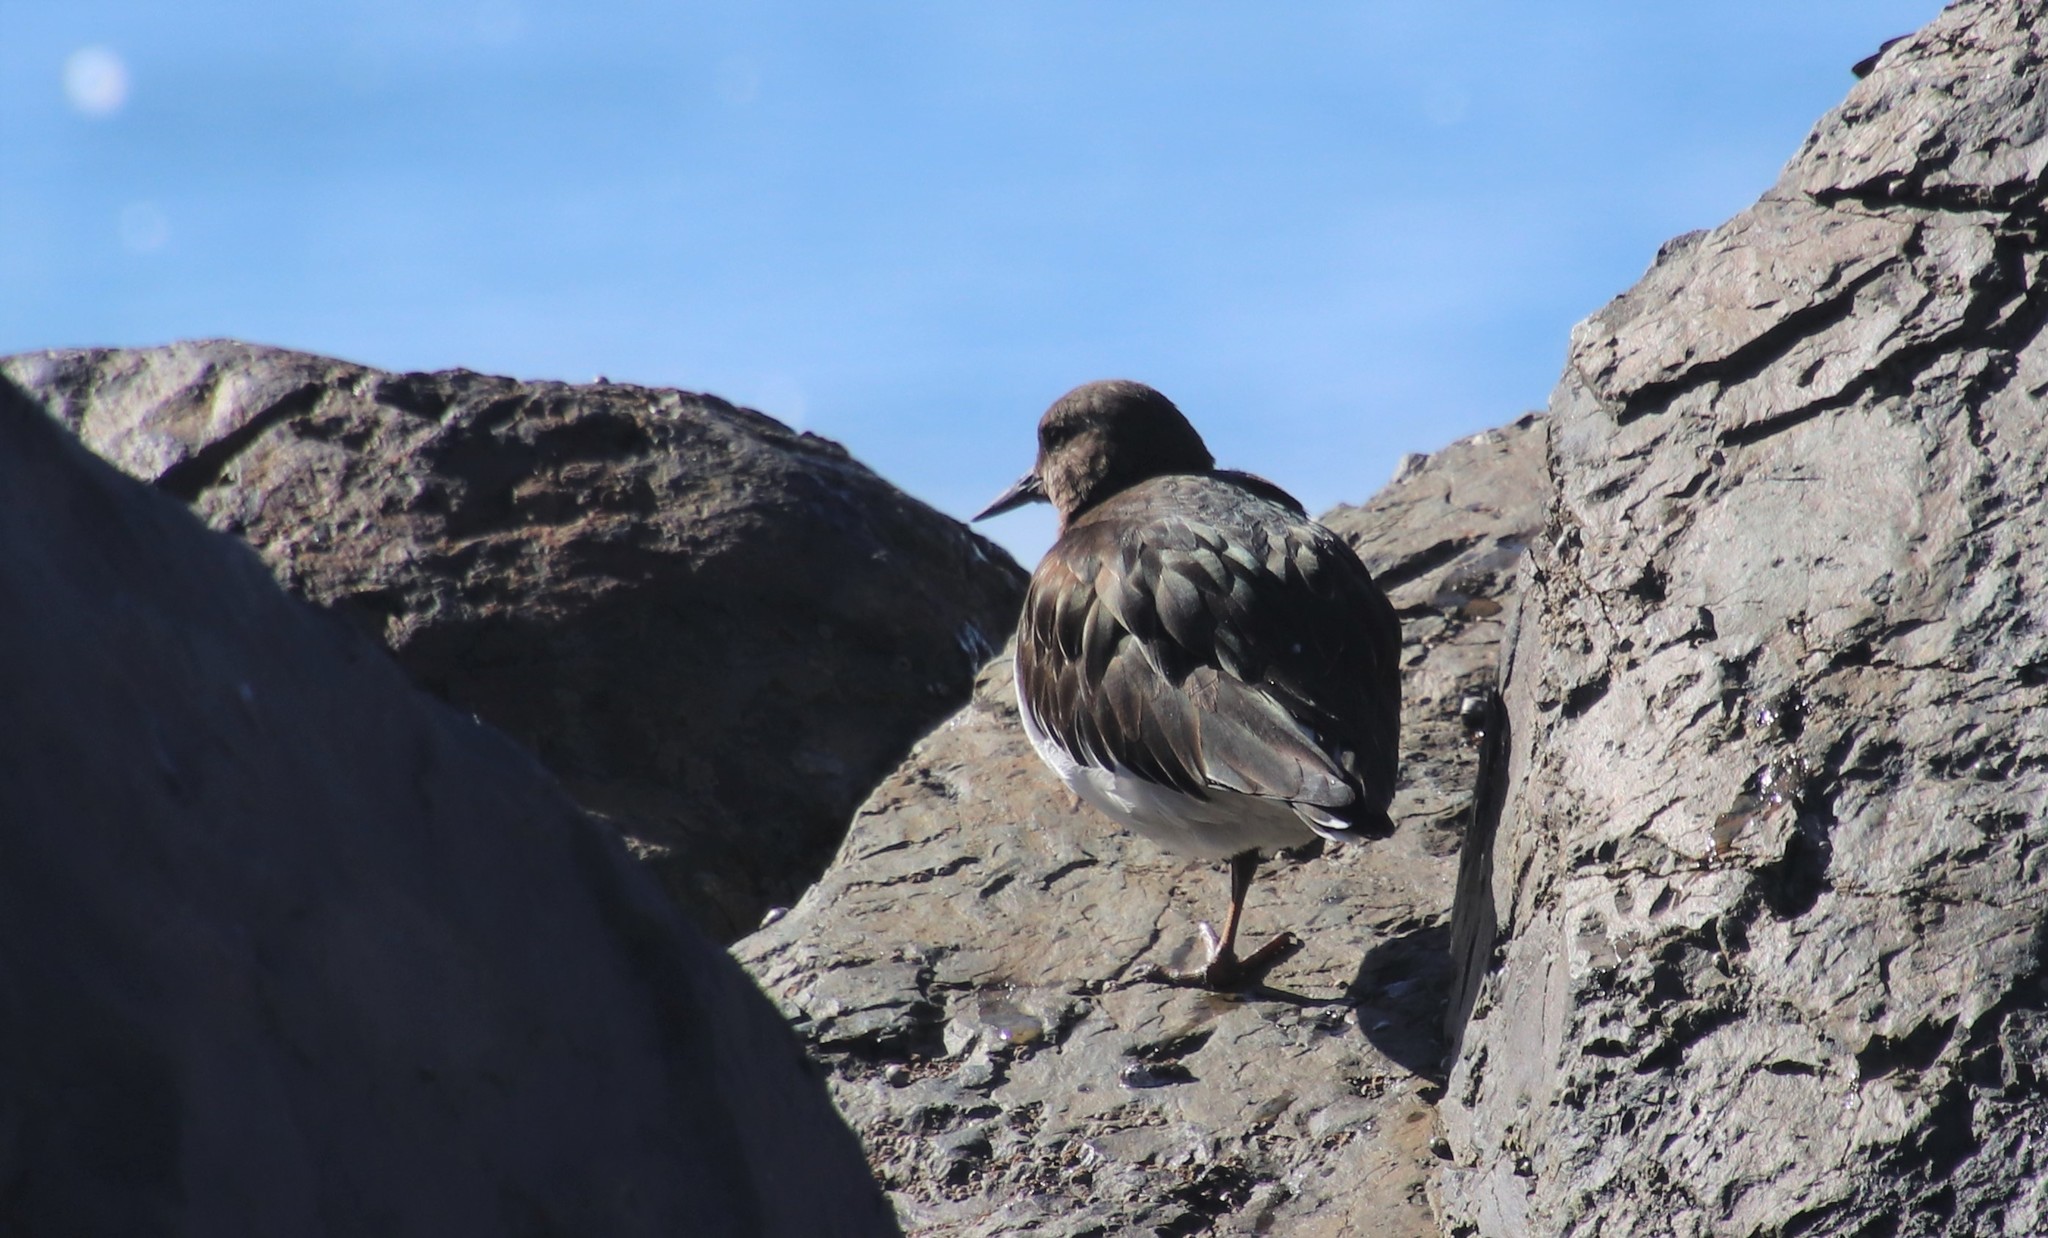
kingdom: Animalia
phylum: Chordata
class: Aves
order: Charadriiformes
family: Scolopacidae
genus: Arenaria
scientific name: Arenaria melanocephala
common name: Black turnstone
